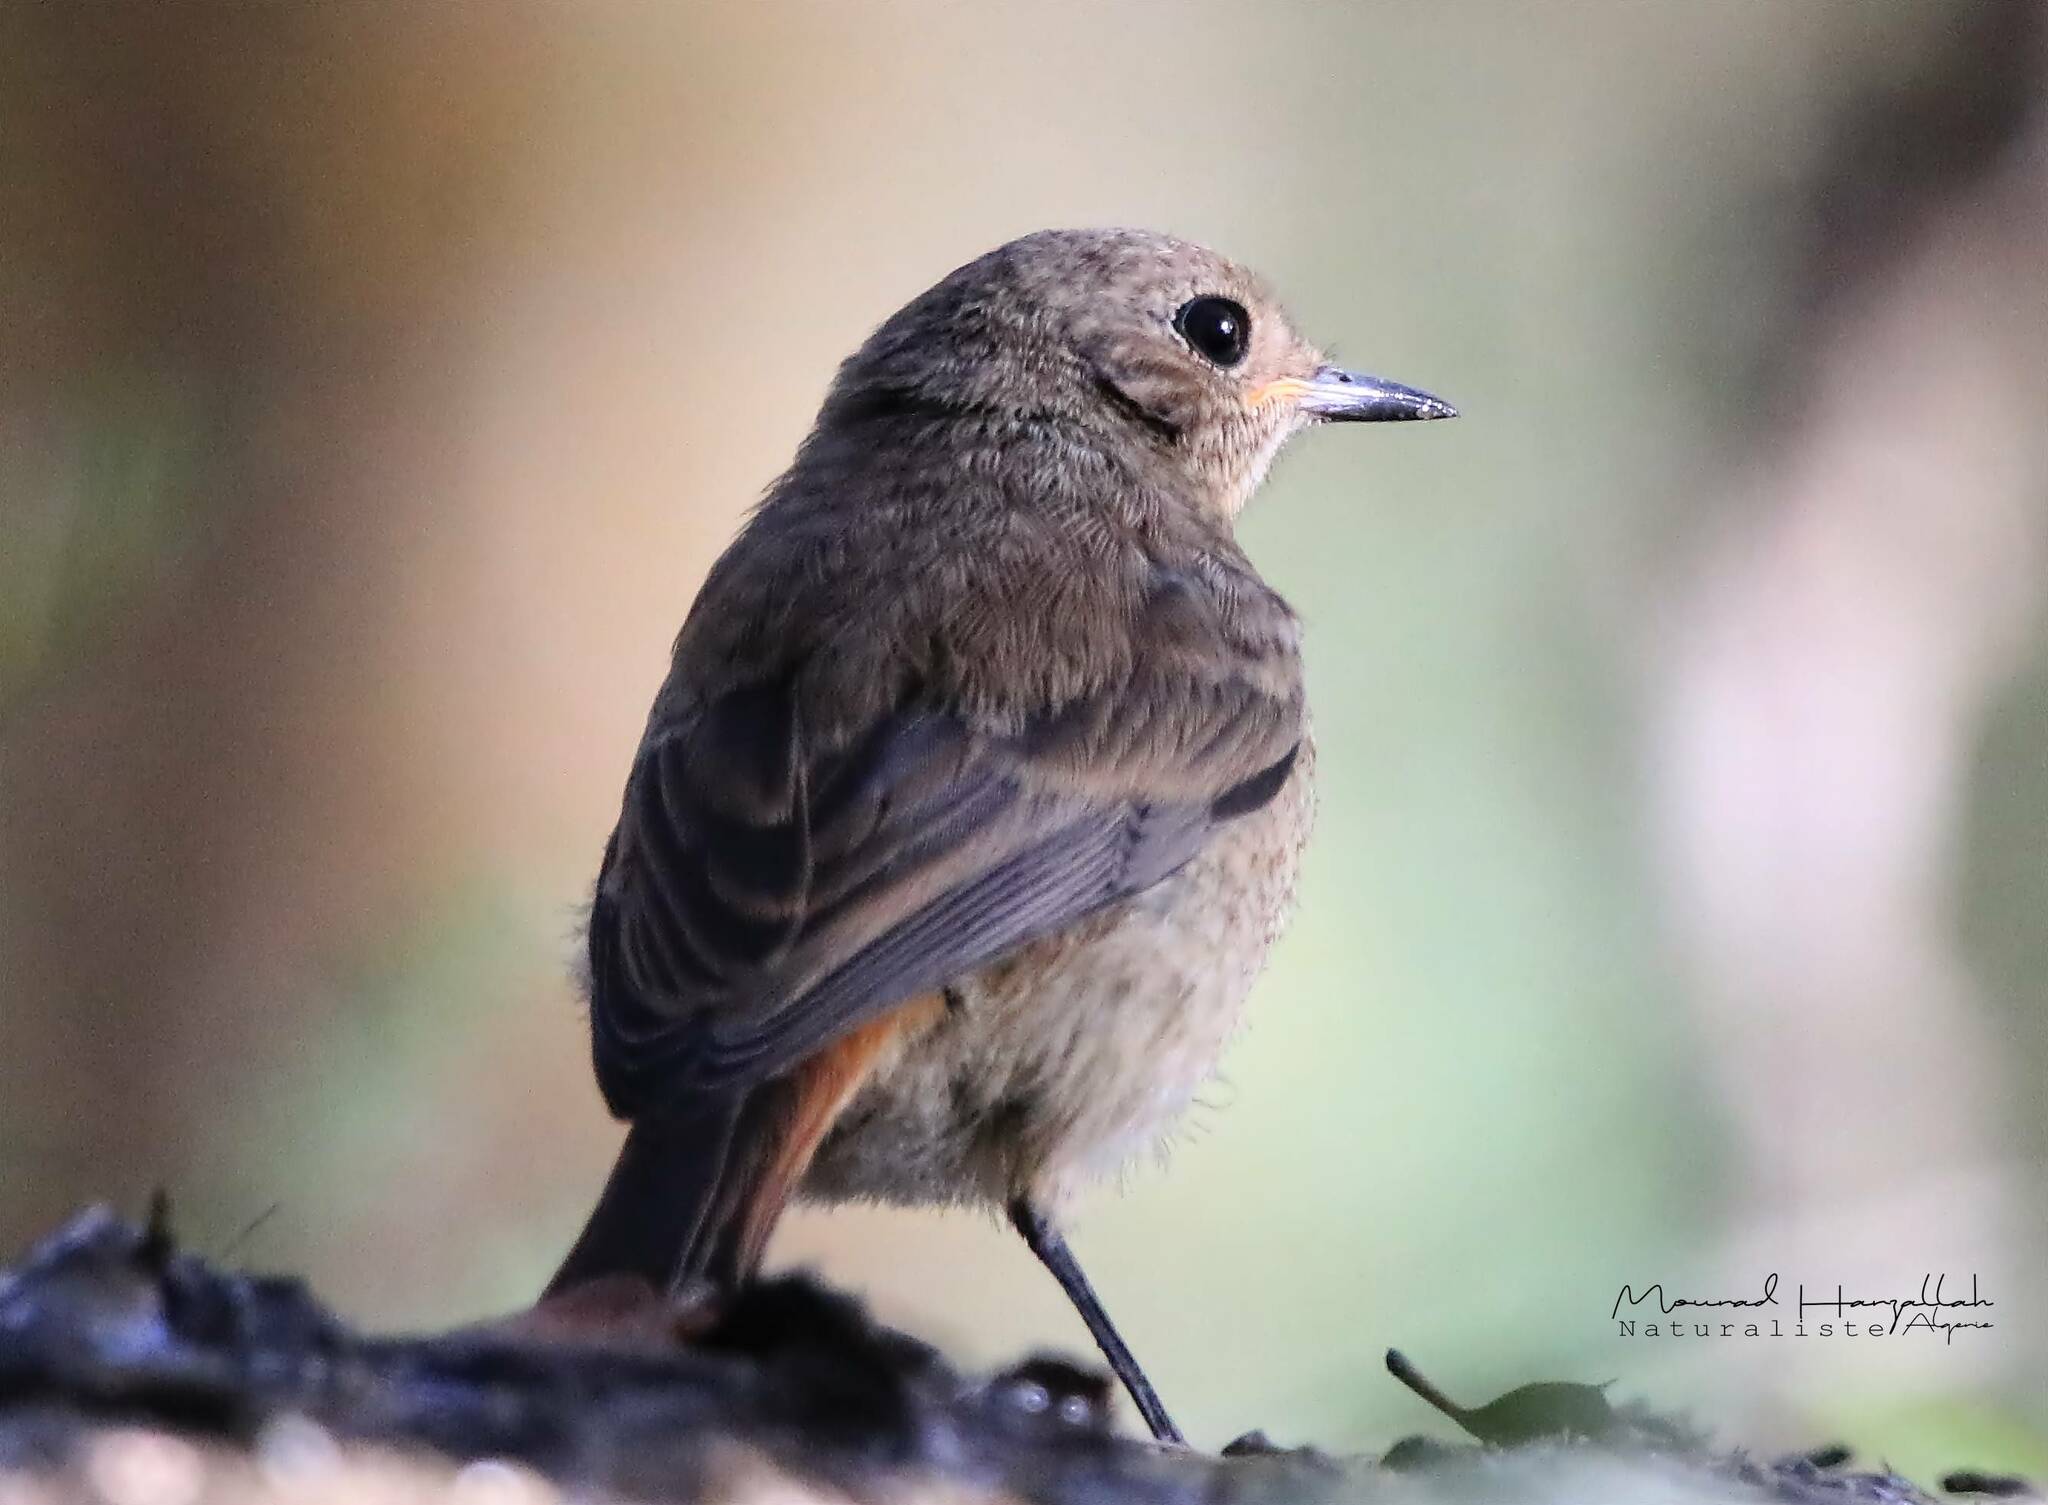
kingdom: Animalia
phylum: Chordata
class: Aves
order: Passeriformes
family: Muscicapidae
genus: Phoenicurus
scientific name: Phoenicurus moussieri
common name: Moussier's redstart
